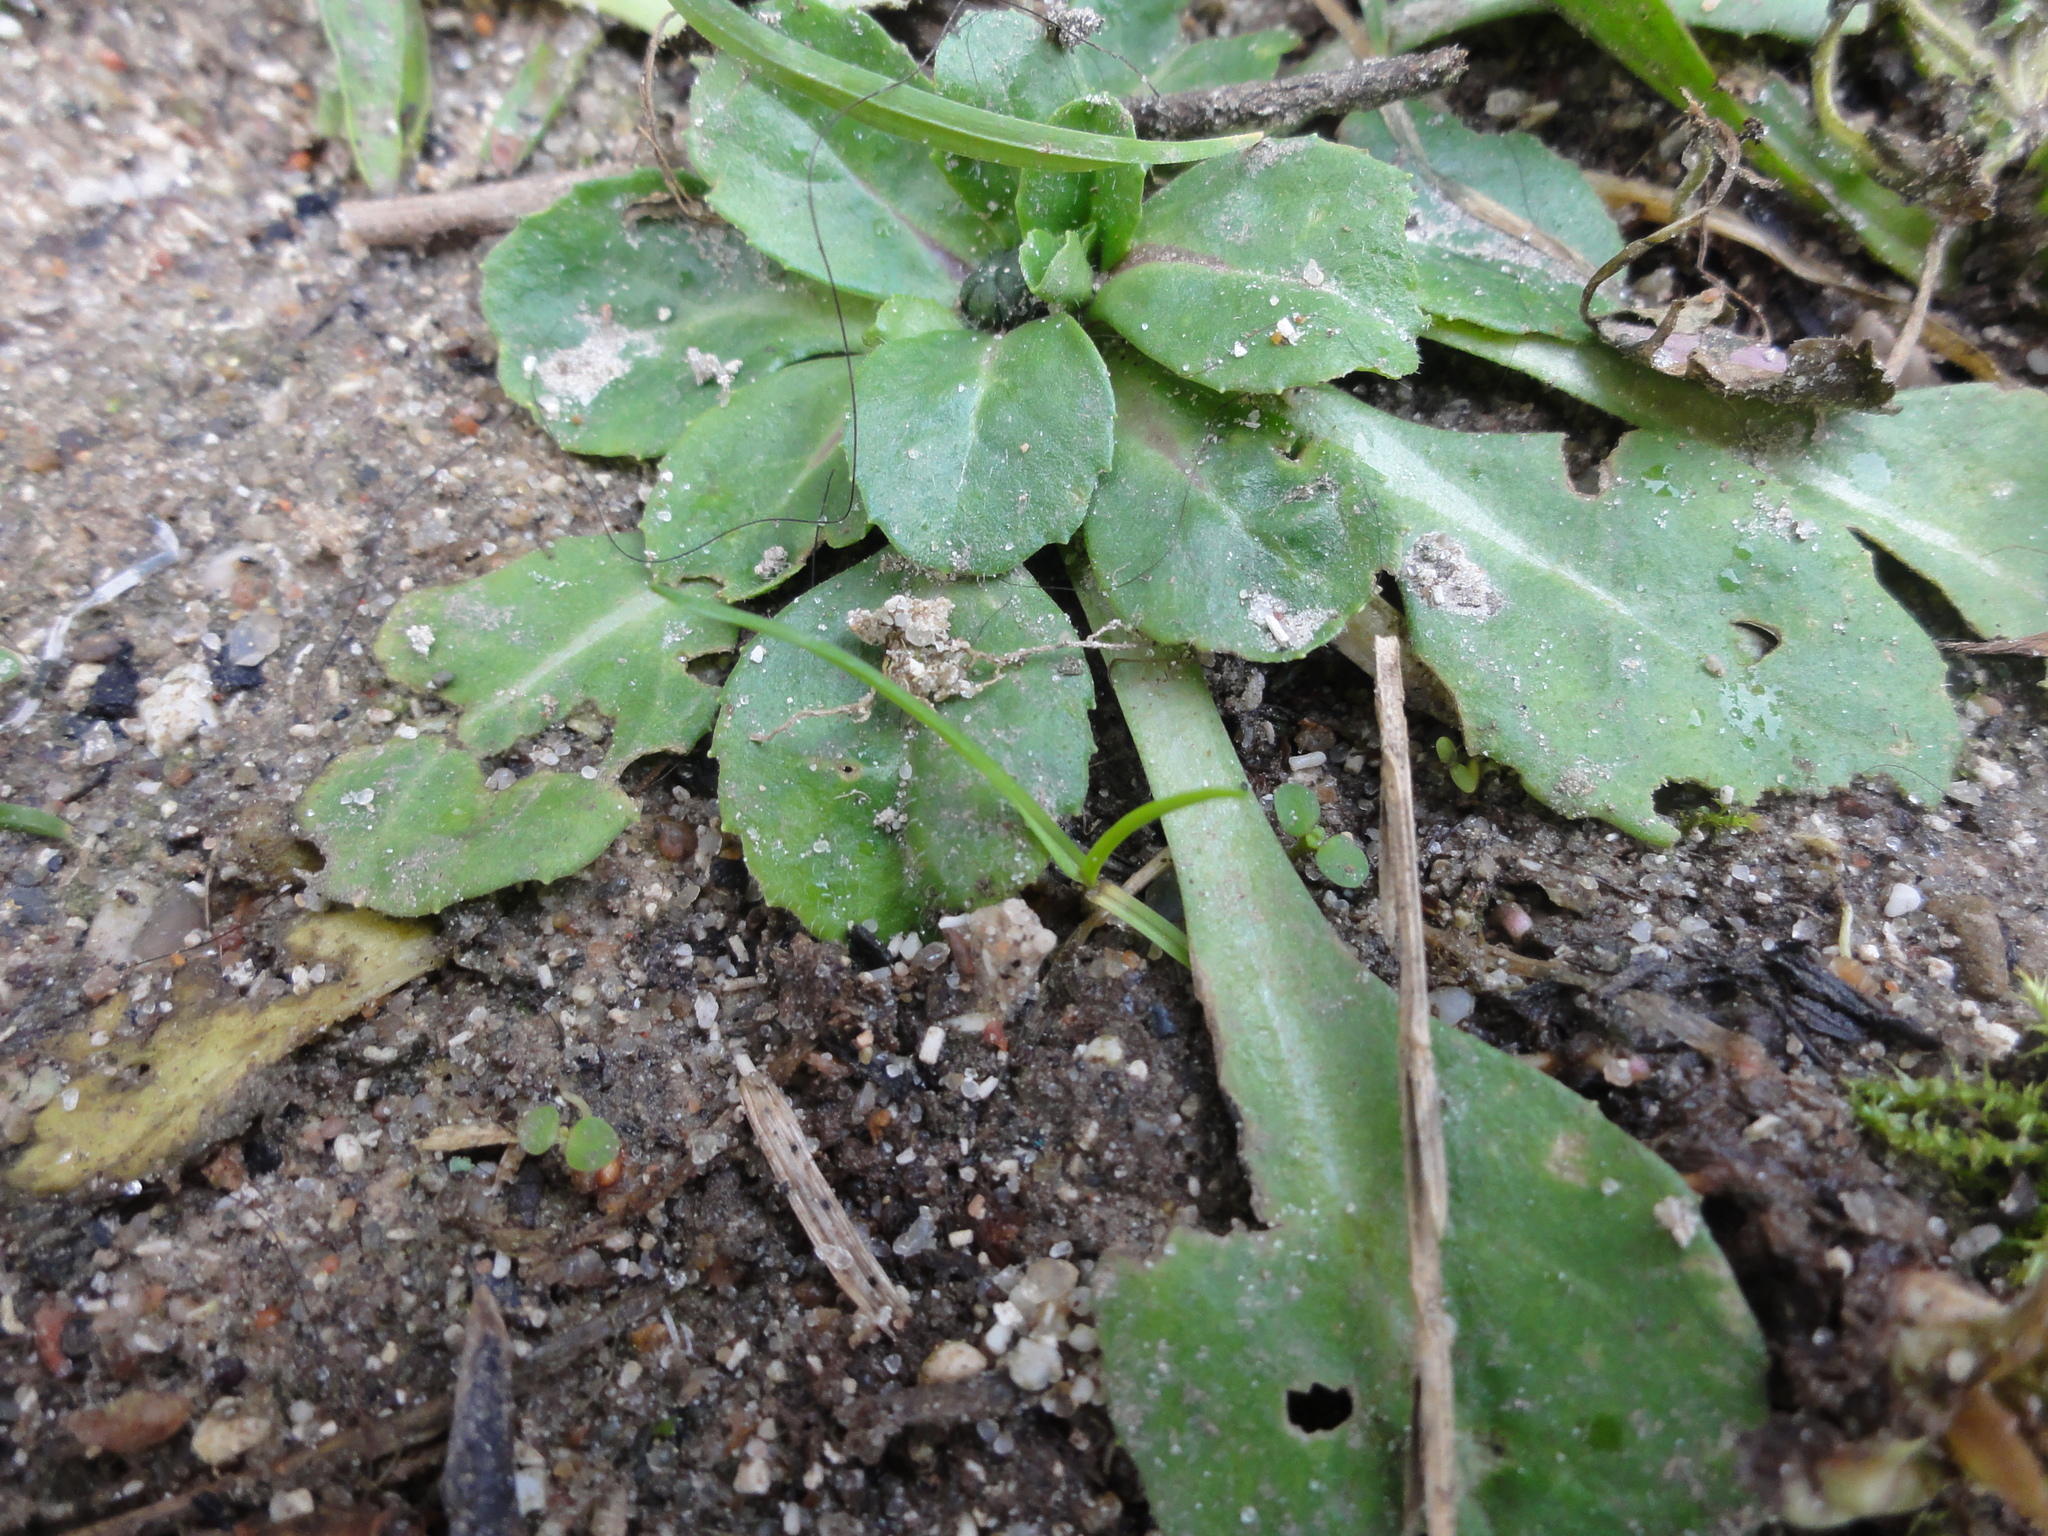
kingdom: Plantae
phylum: Tracheophyta
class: Magnoliopsida
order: Asterales
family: Asteraceae
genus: Bellis
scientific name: Bellis perennis
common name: Lawndaisy
